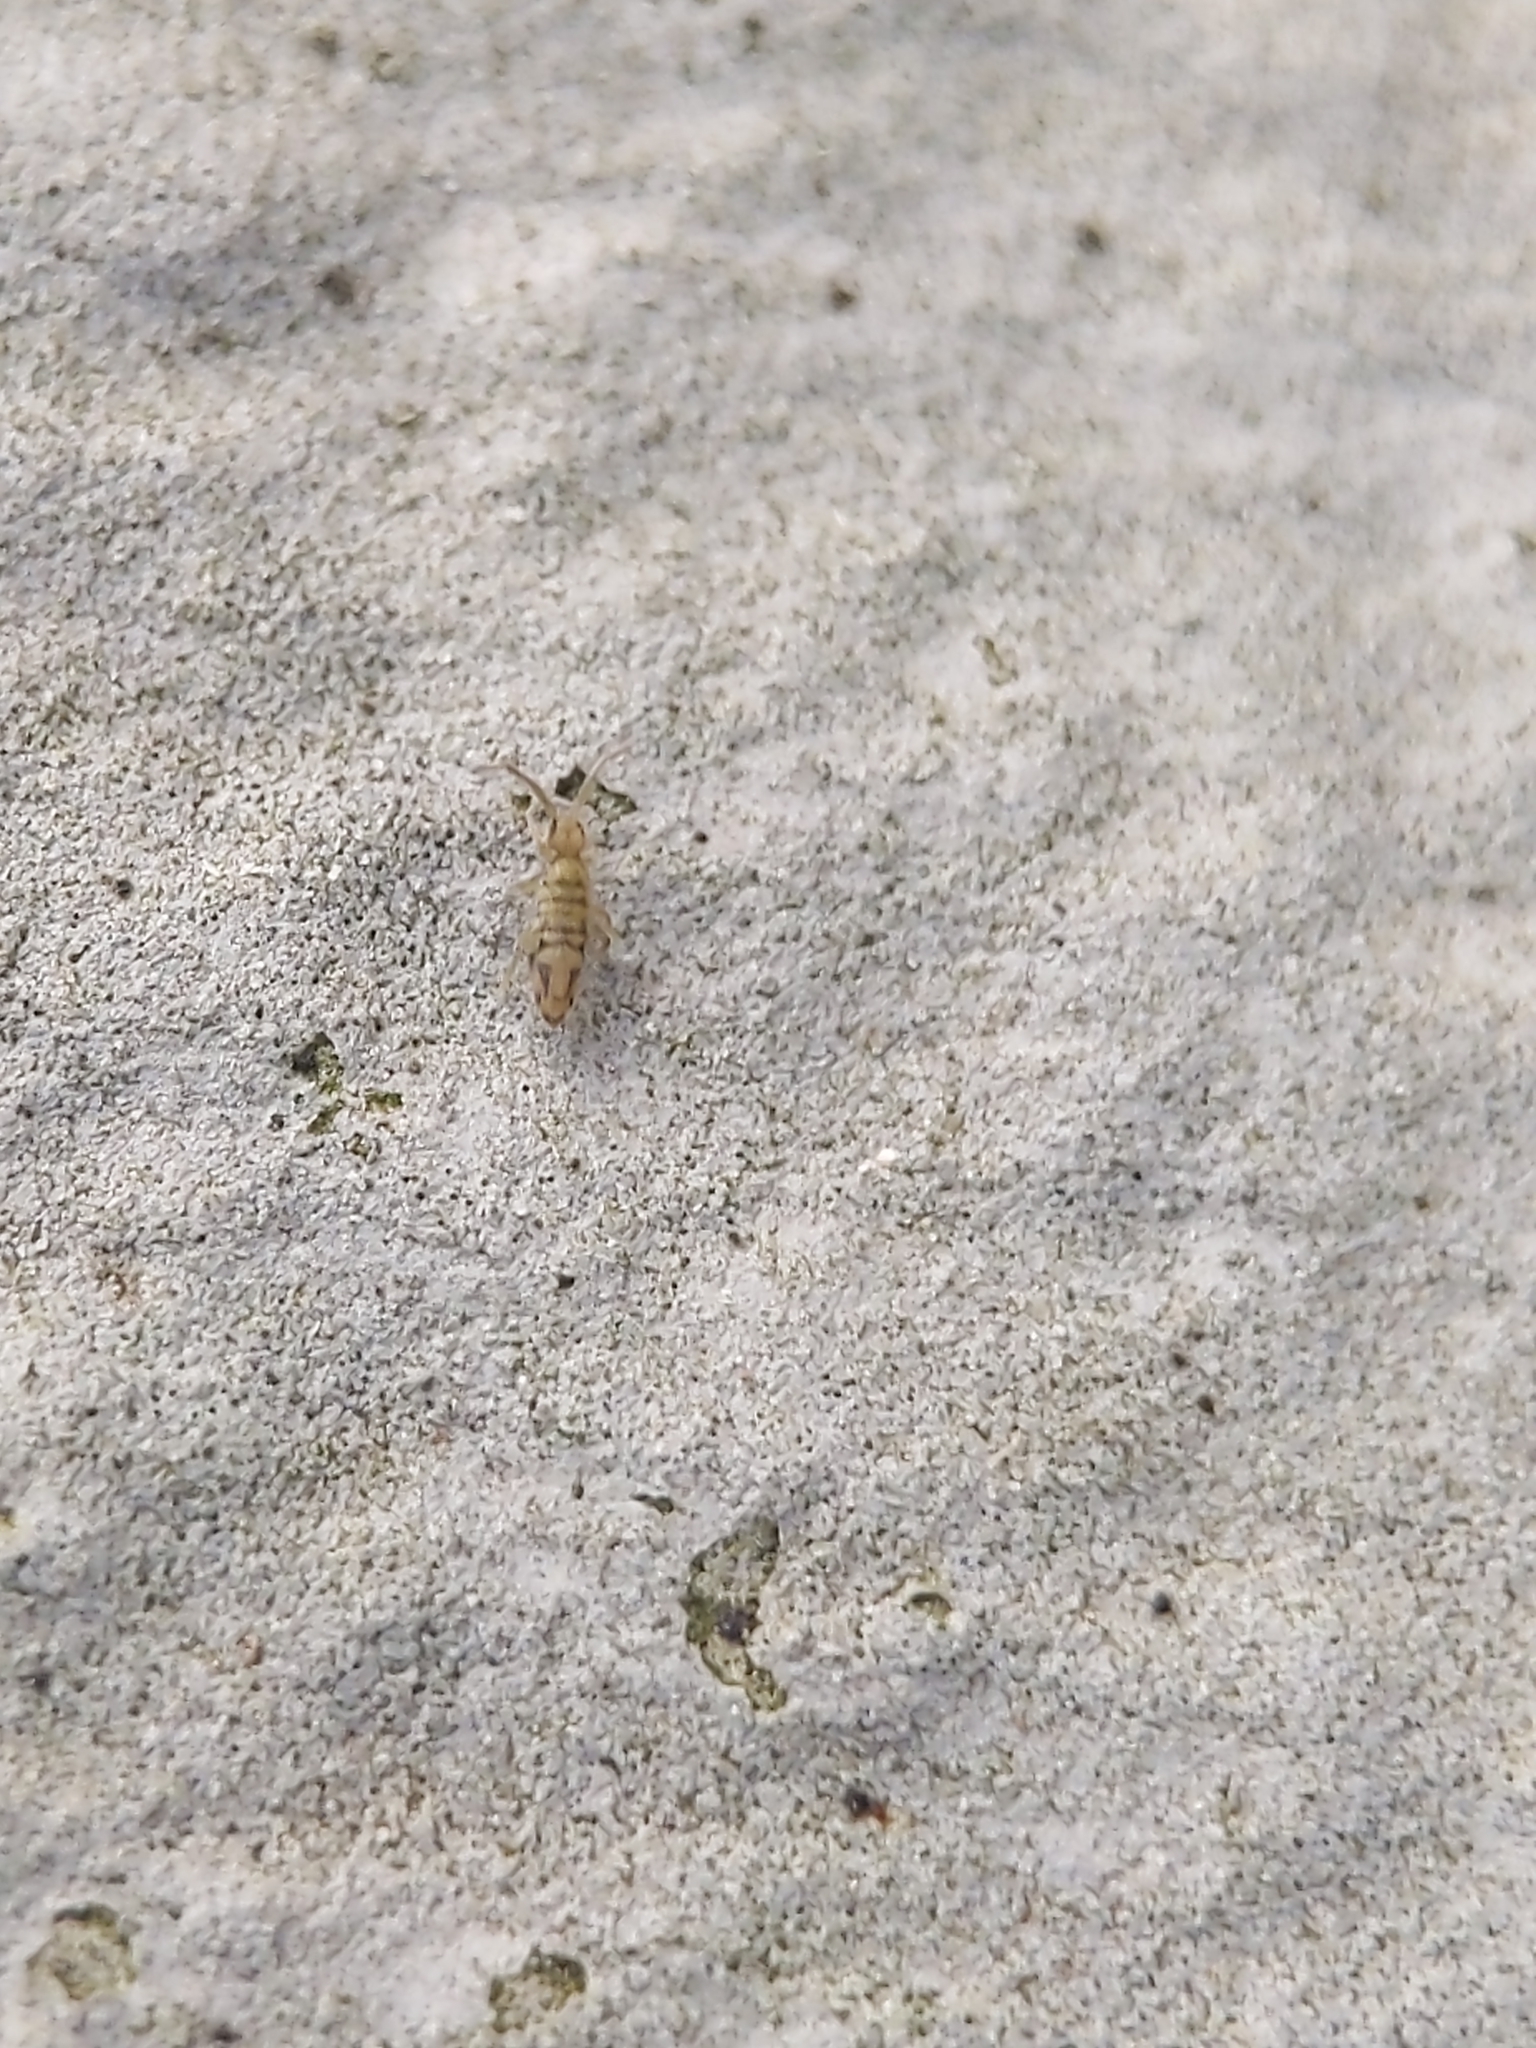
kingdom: Animalia
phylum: Arthropoda
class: Collembola
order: Entomobryomorpha
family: Entomobryidae
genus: Entomobrya
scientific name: Entomobrya nivalis
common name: Cosmopolitan springtail
